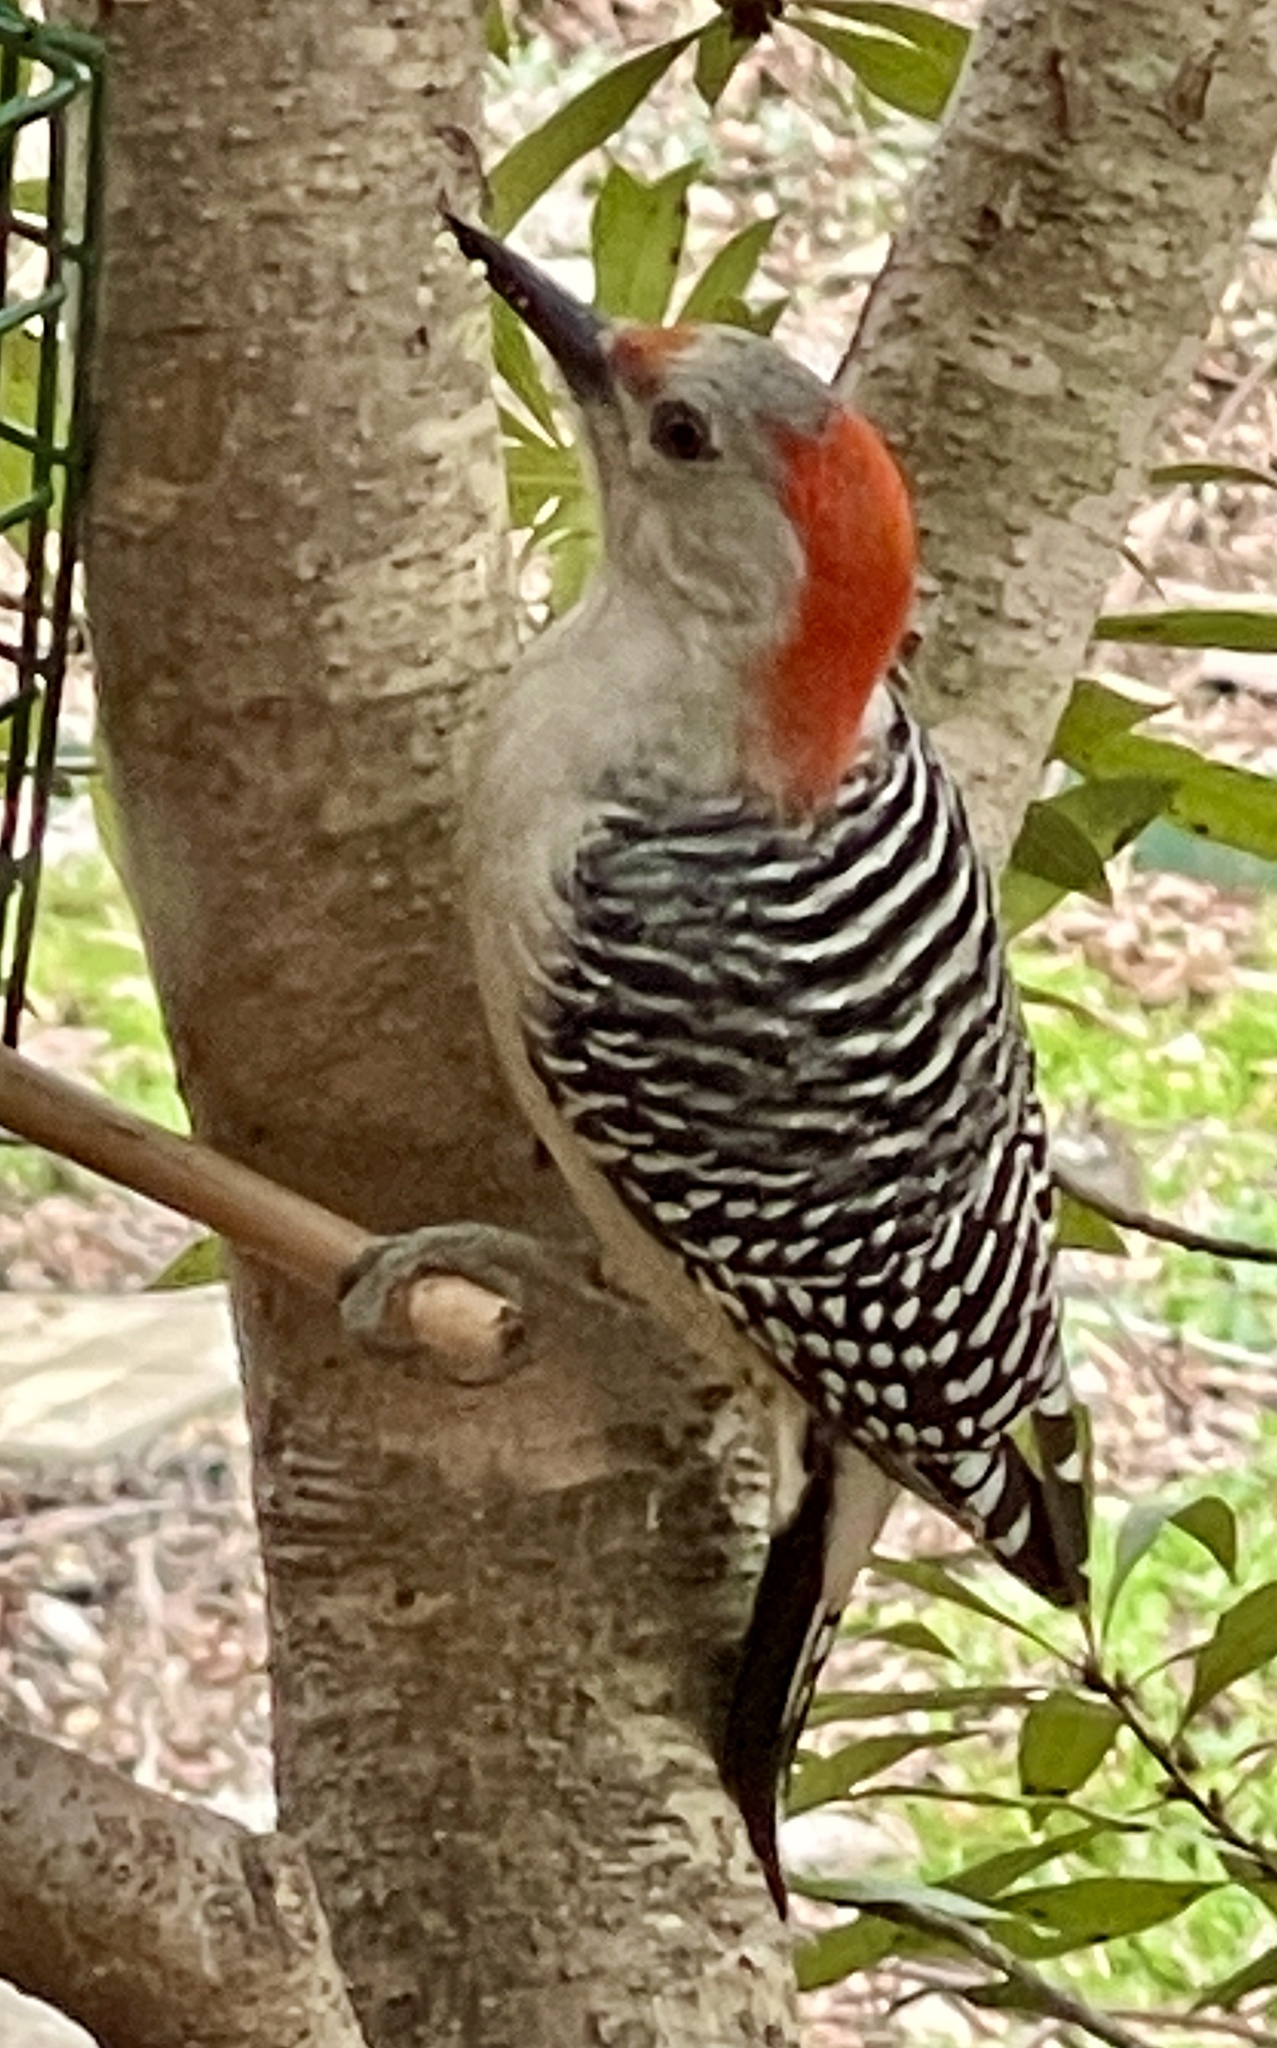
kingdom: Animalia
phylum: Chordata
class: Aves
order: Piciformes
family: Picidae
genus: Melanerpes
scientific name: Melanerpes carolinus
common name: Red-bellied woodpecker
